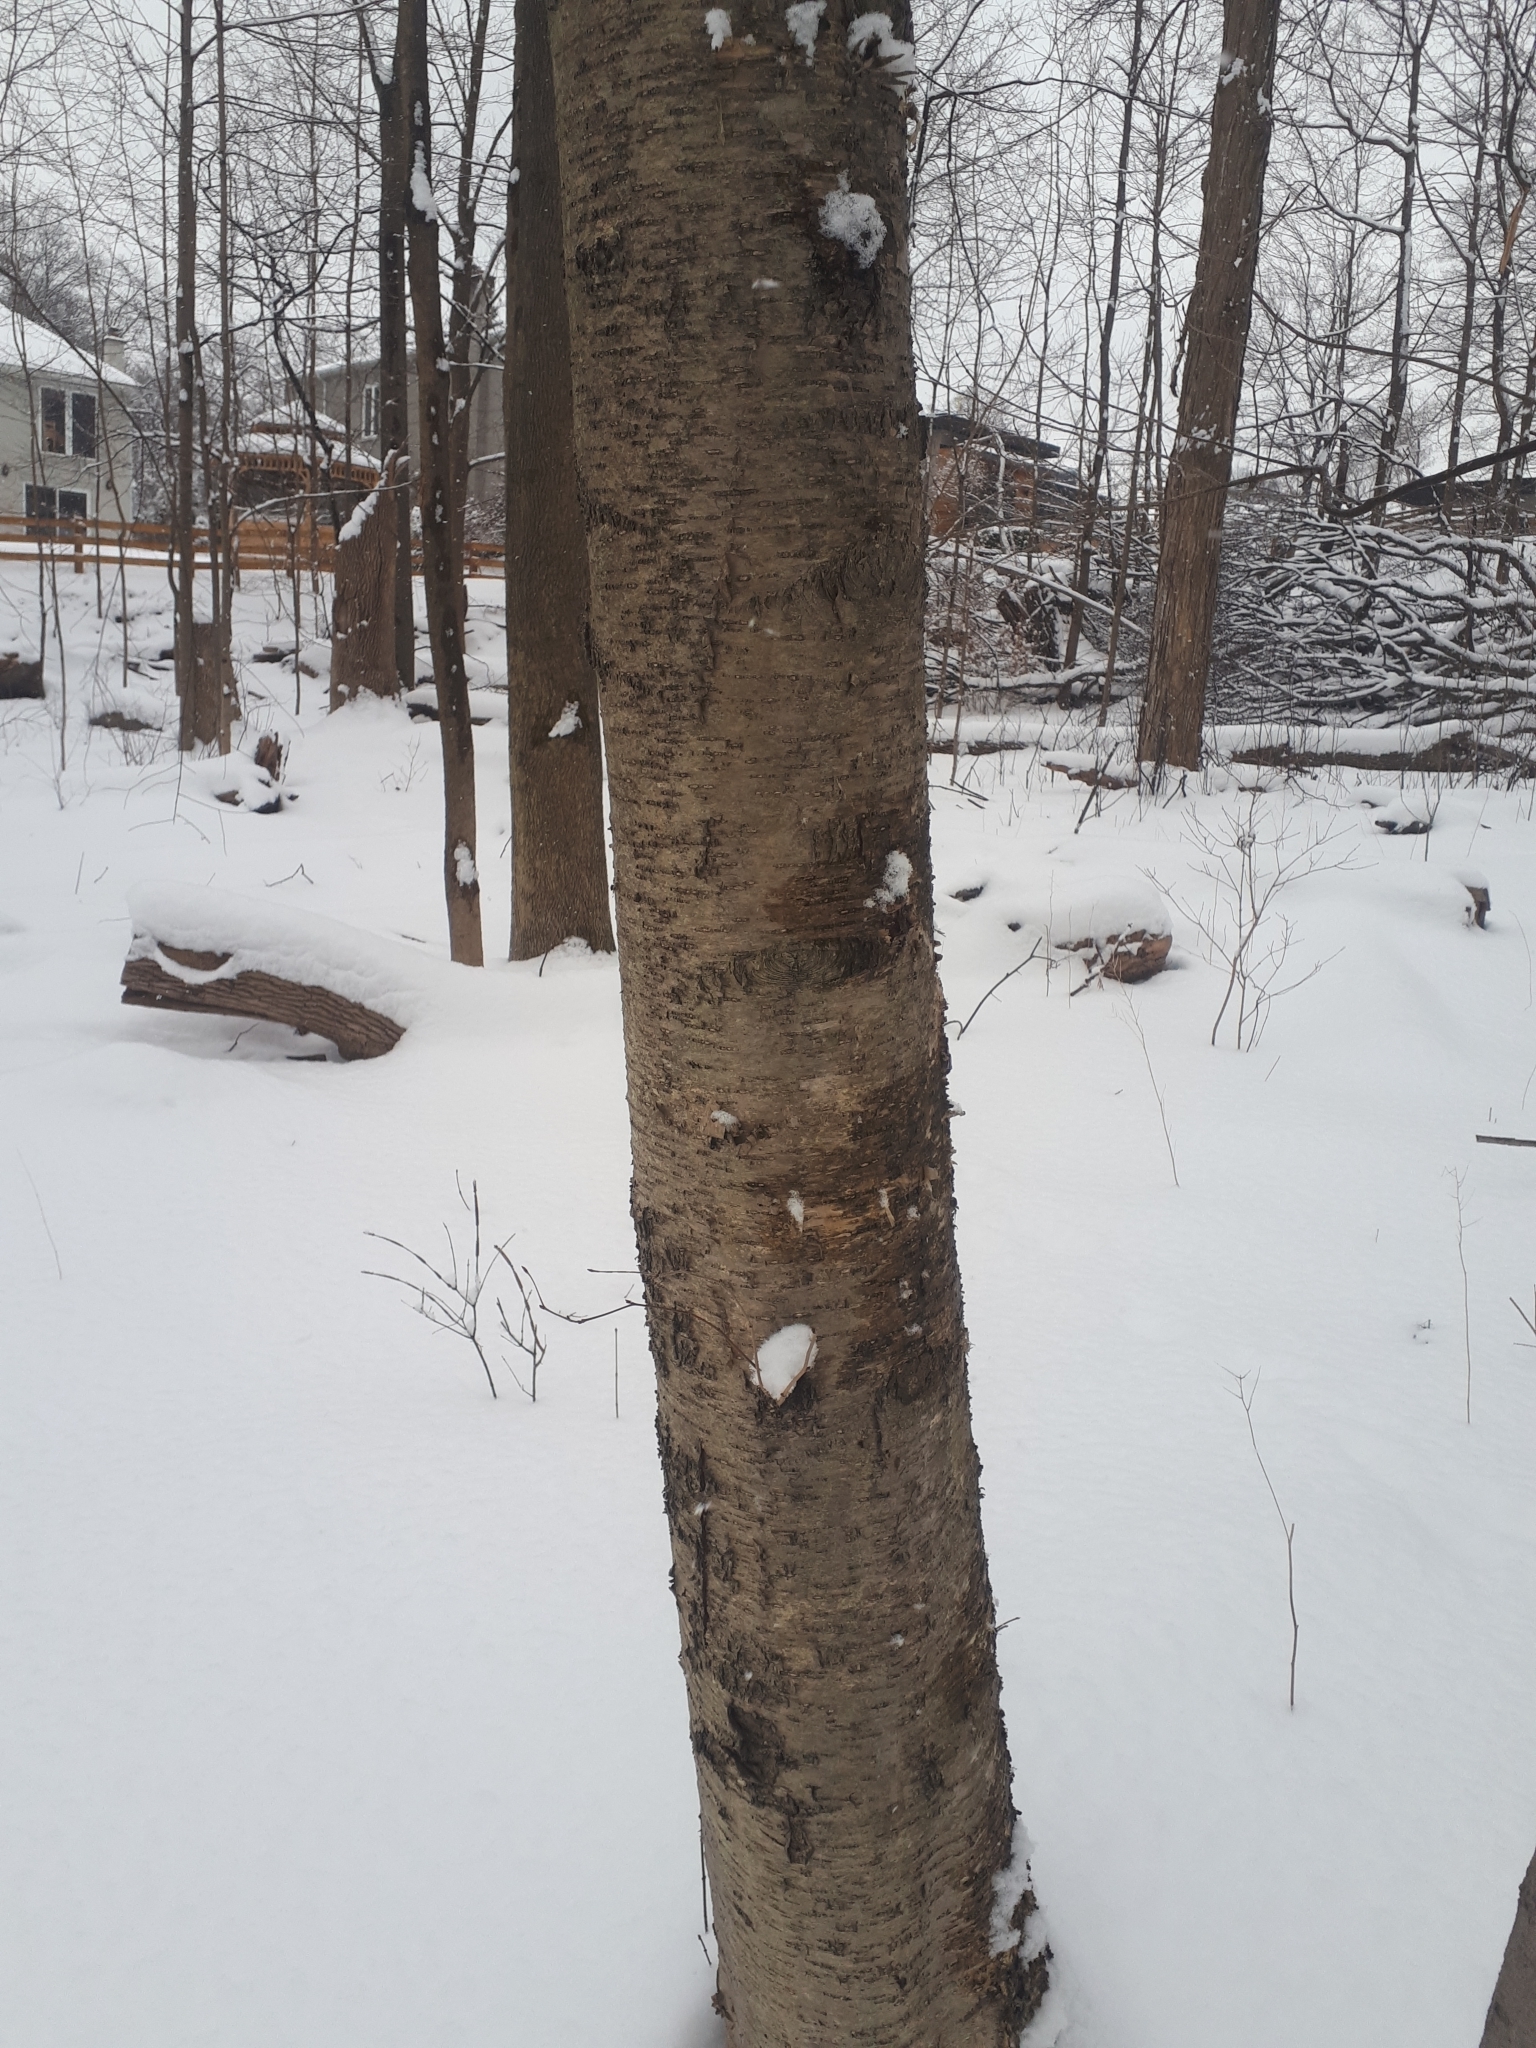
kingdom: Plantae
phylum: Tracheophyta
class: Magnoliopsida
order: Fagales
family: Betulaceae
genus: Betula
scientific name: Betula alleghaniensis
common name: Yellow birch
